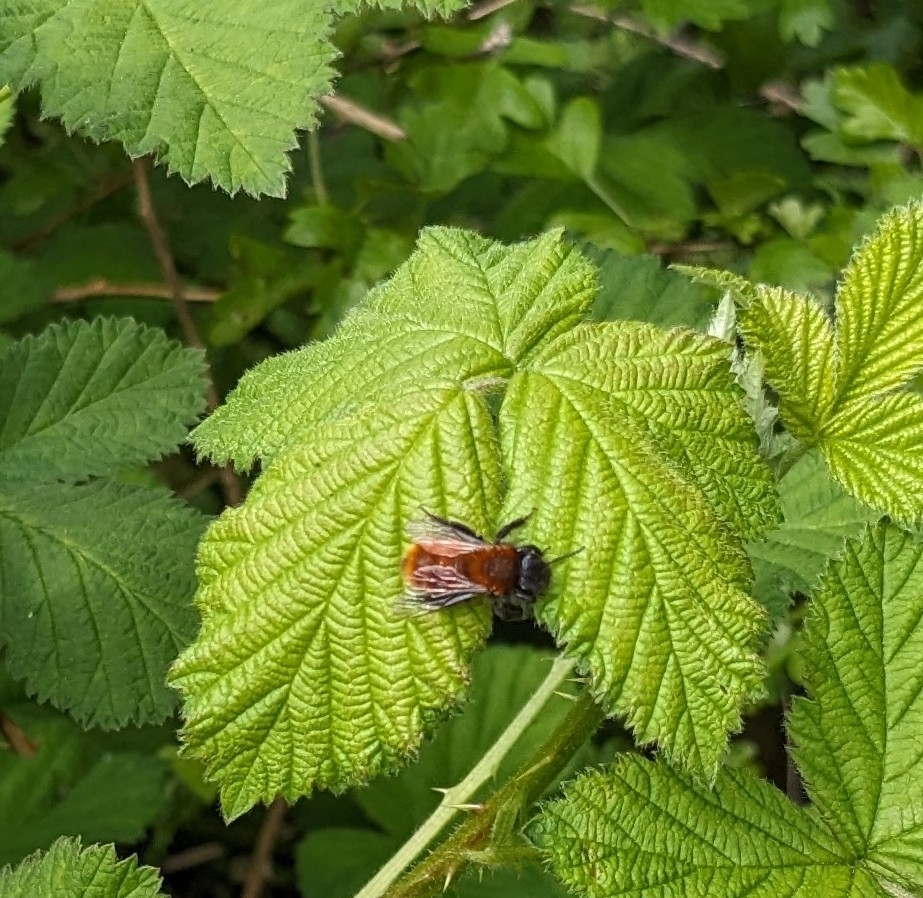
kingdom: Animalia
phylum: Arthropoda
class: Insecta
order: Hymenoptera
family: Andrenidae
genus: Andrena
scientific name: Andrena fulva
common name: Tawny mining bee
